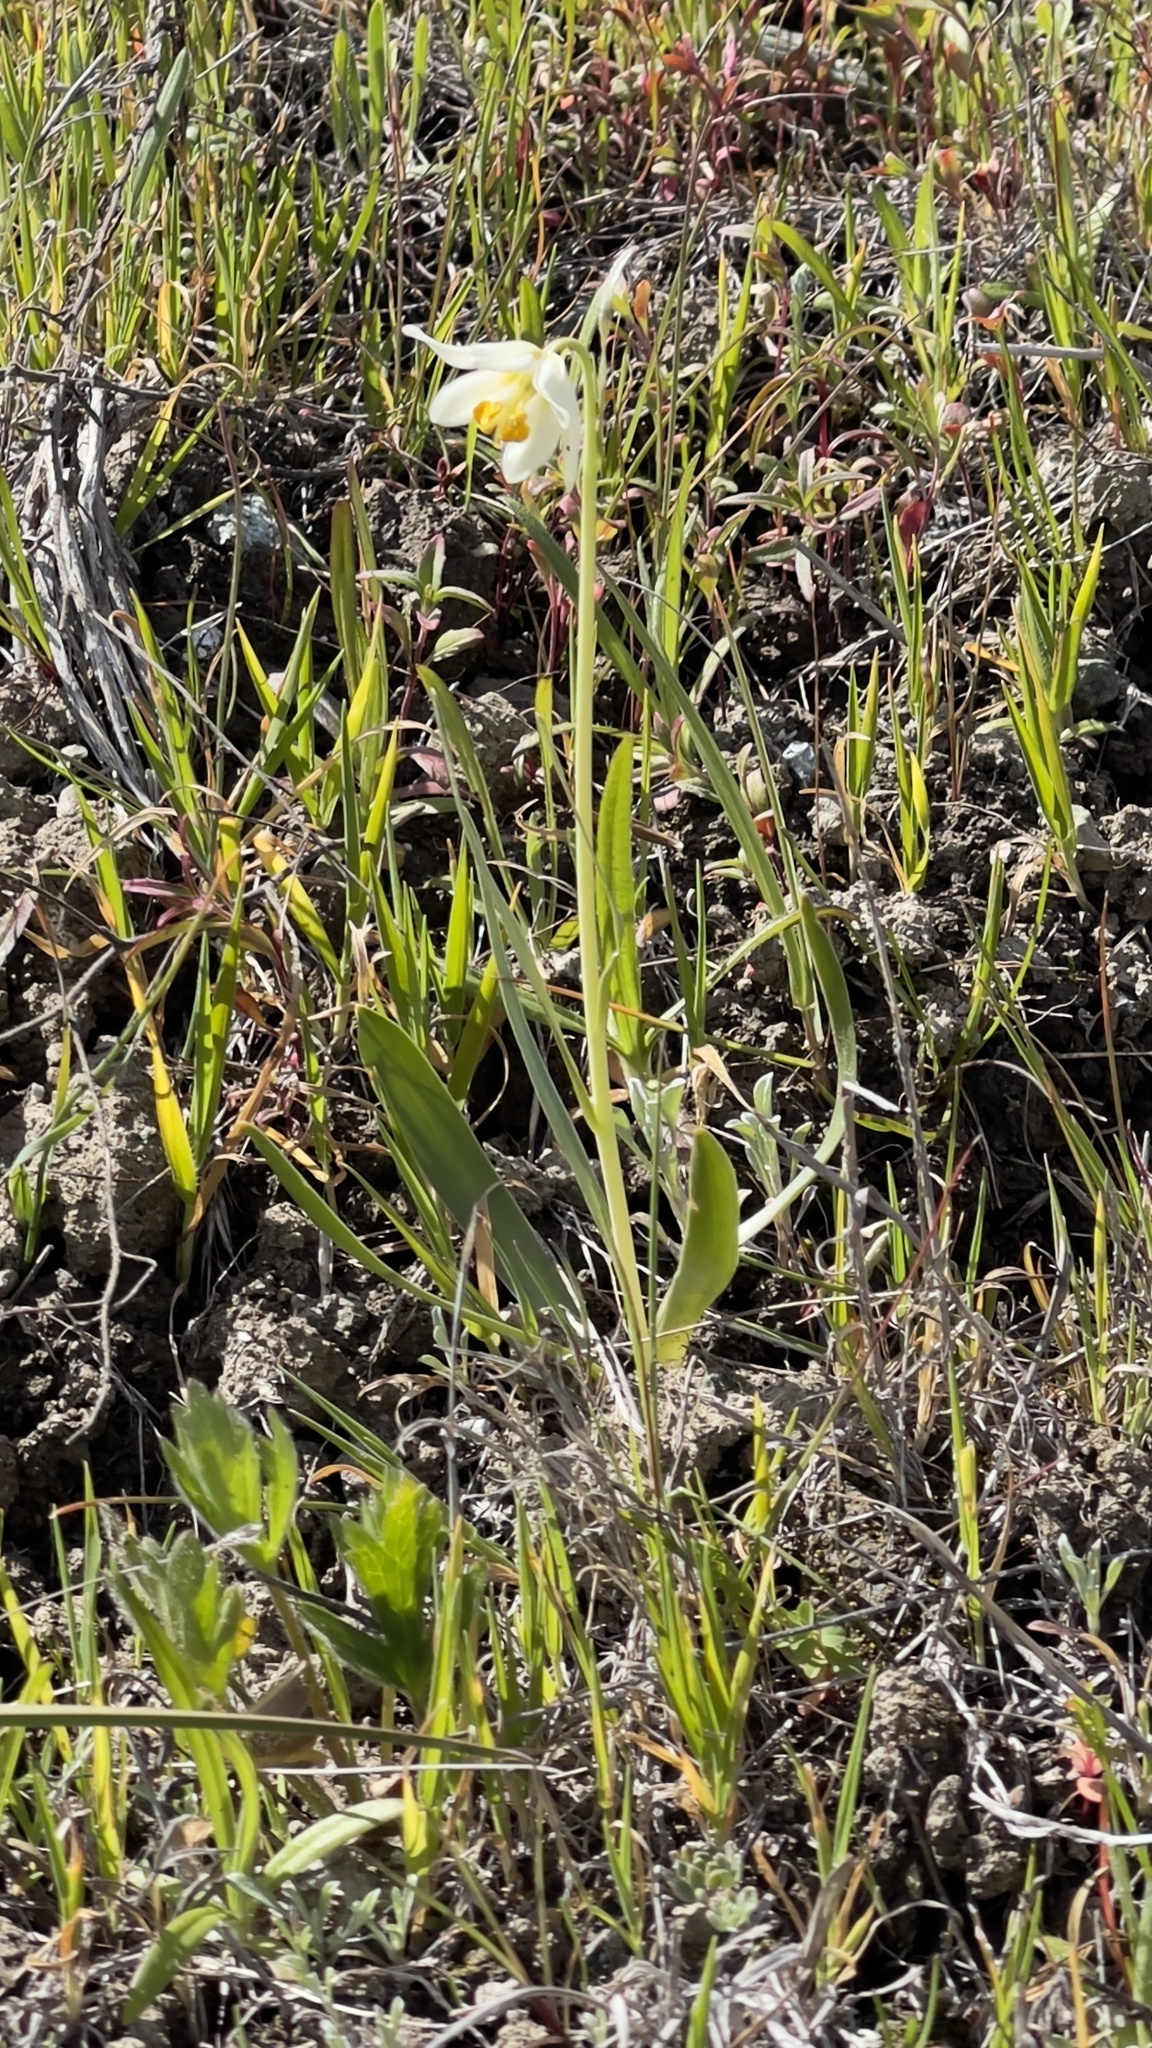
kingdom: Plantae
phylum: Tracheophyta
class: Liliopsida
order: Liliales
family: Liliaceae
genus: Fritillaria
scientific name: Fritillaria liliacea
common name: Fragrant fritillary
